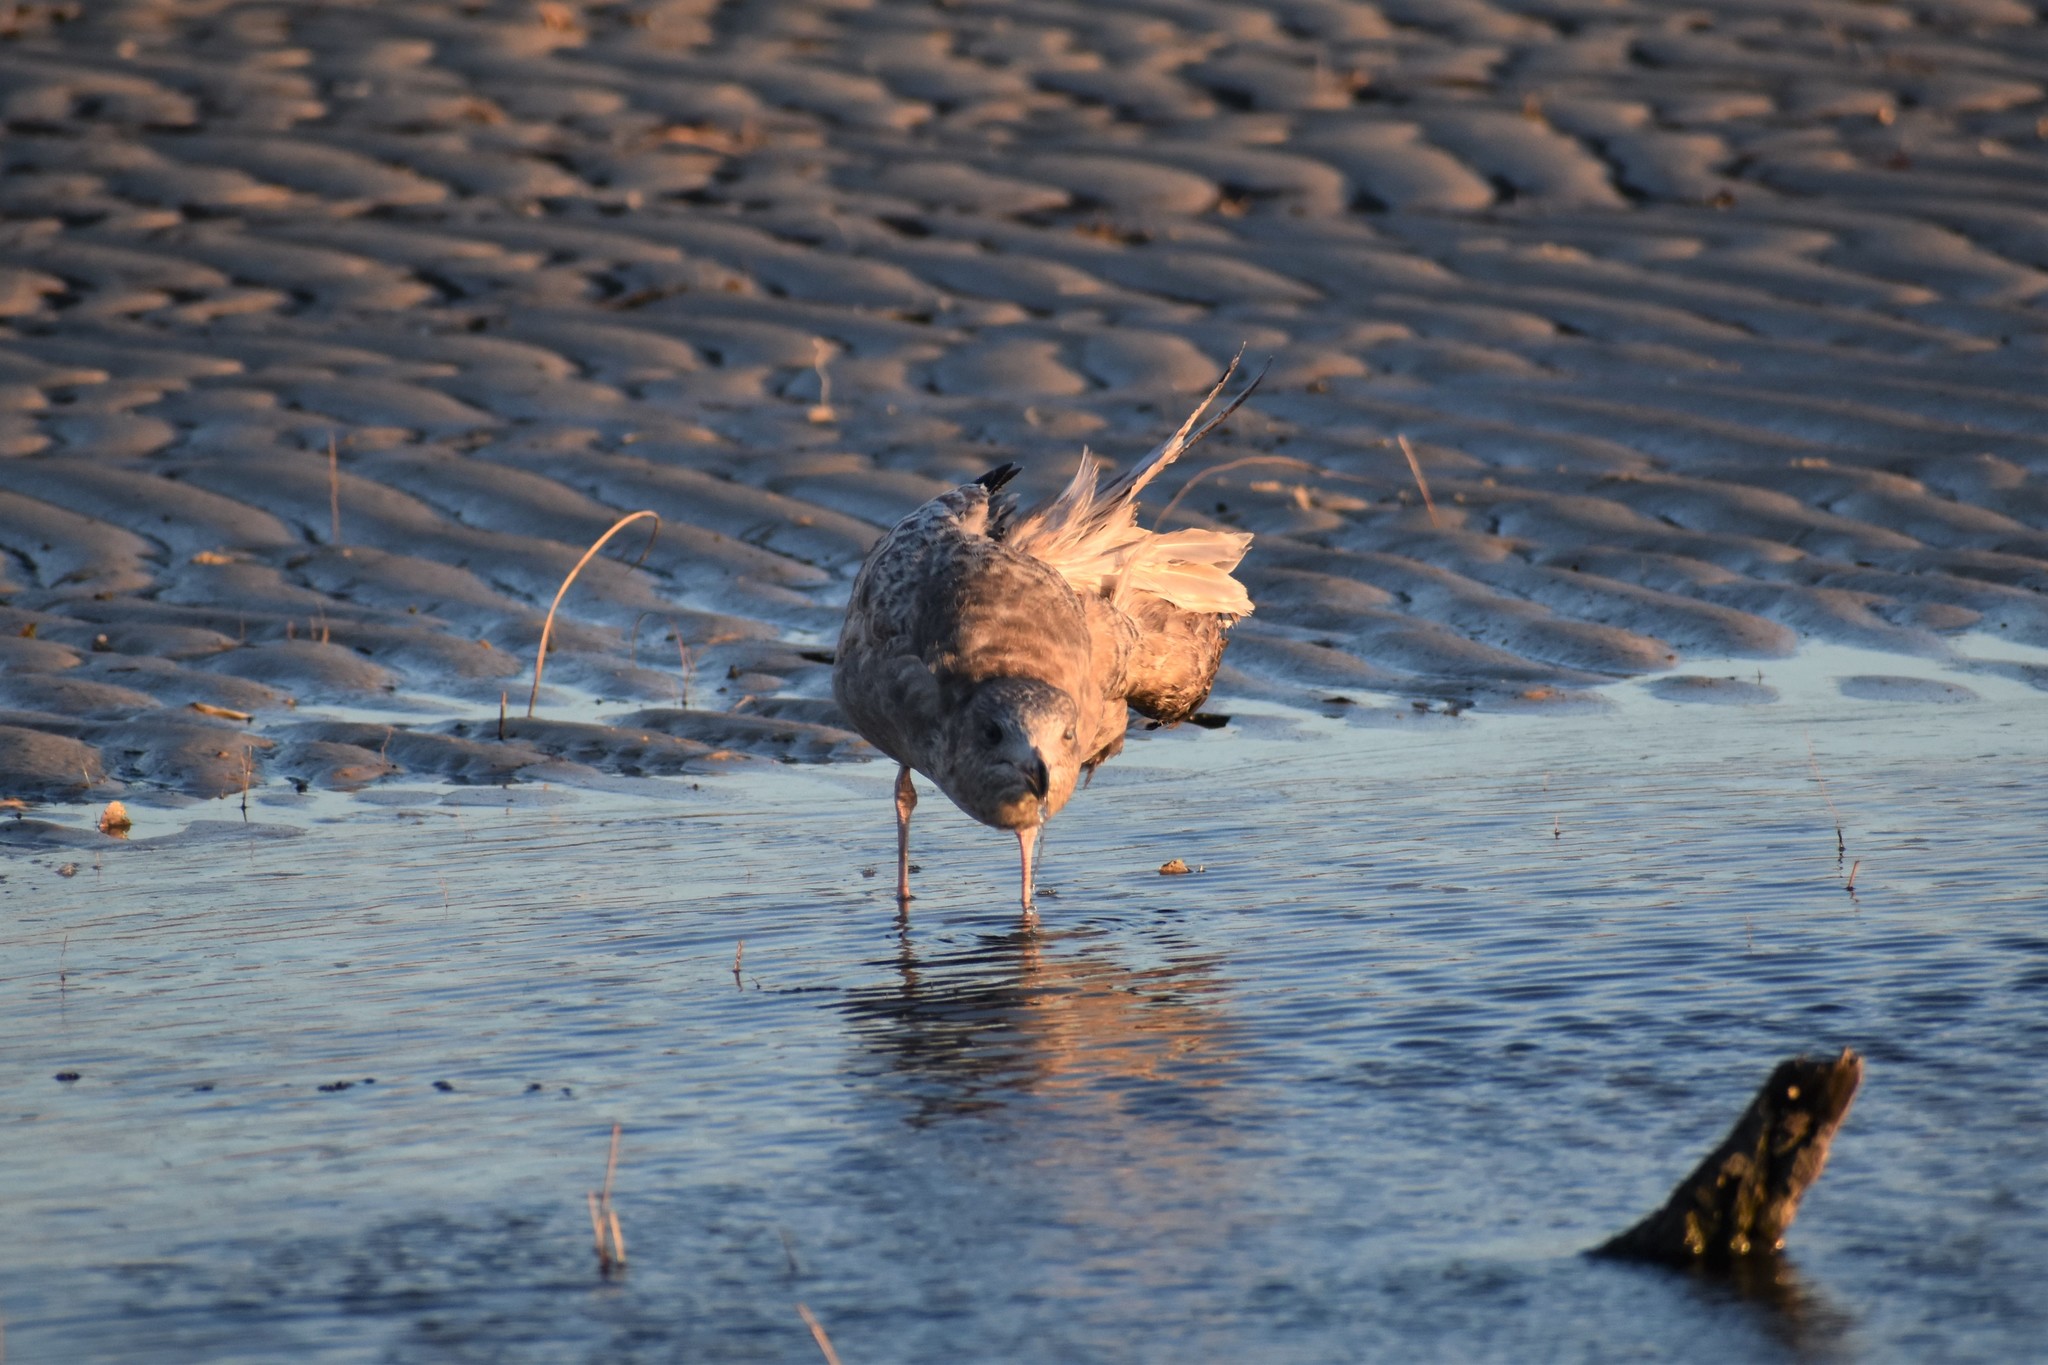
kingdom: Animalia
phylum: Chordata
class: Aves
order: Charadriiformes
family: Laridae
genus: Larus
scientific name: Larus argentatus
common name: Herring gull
